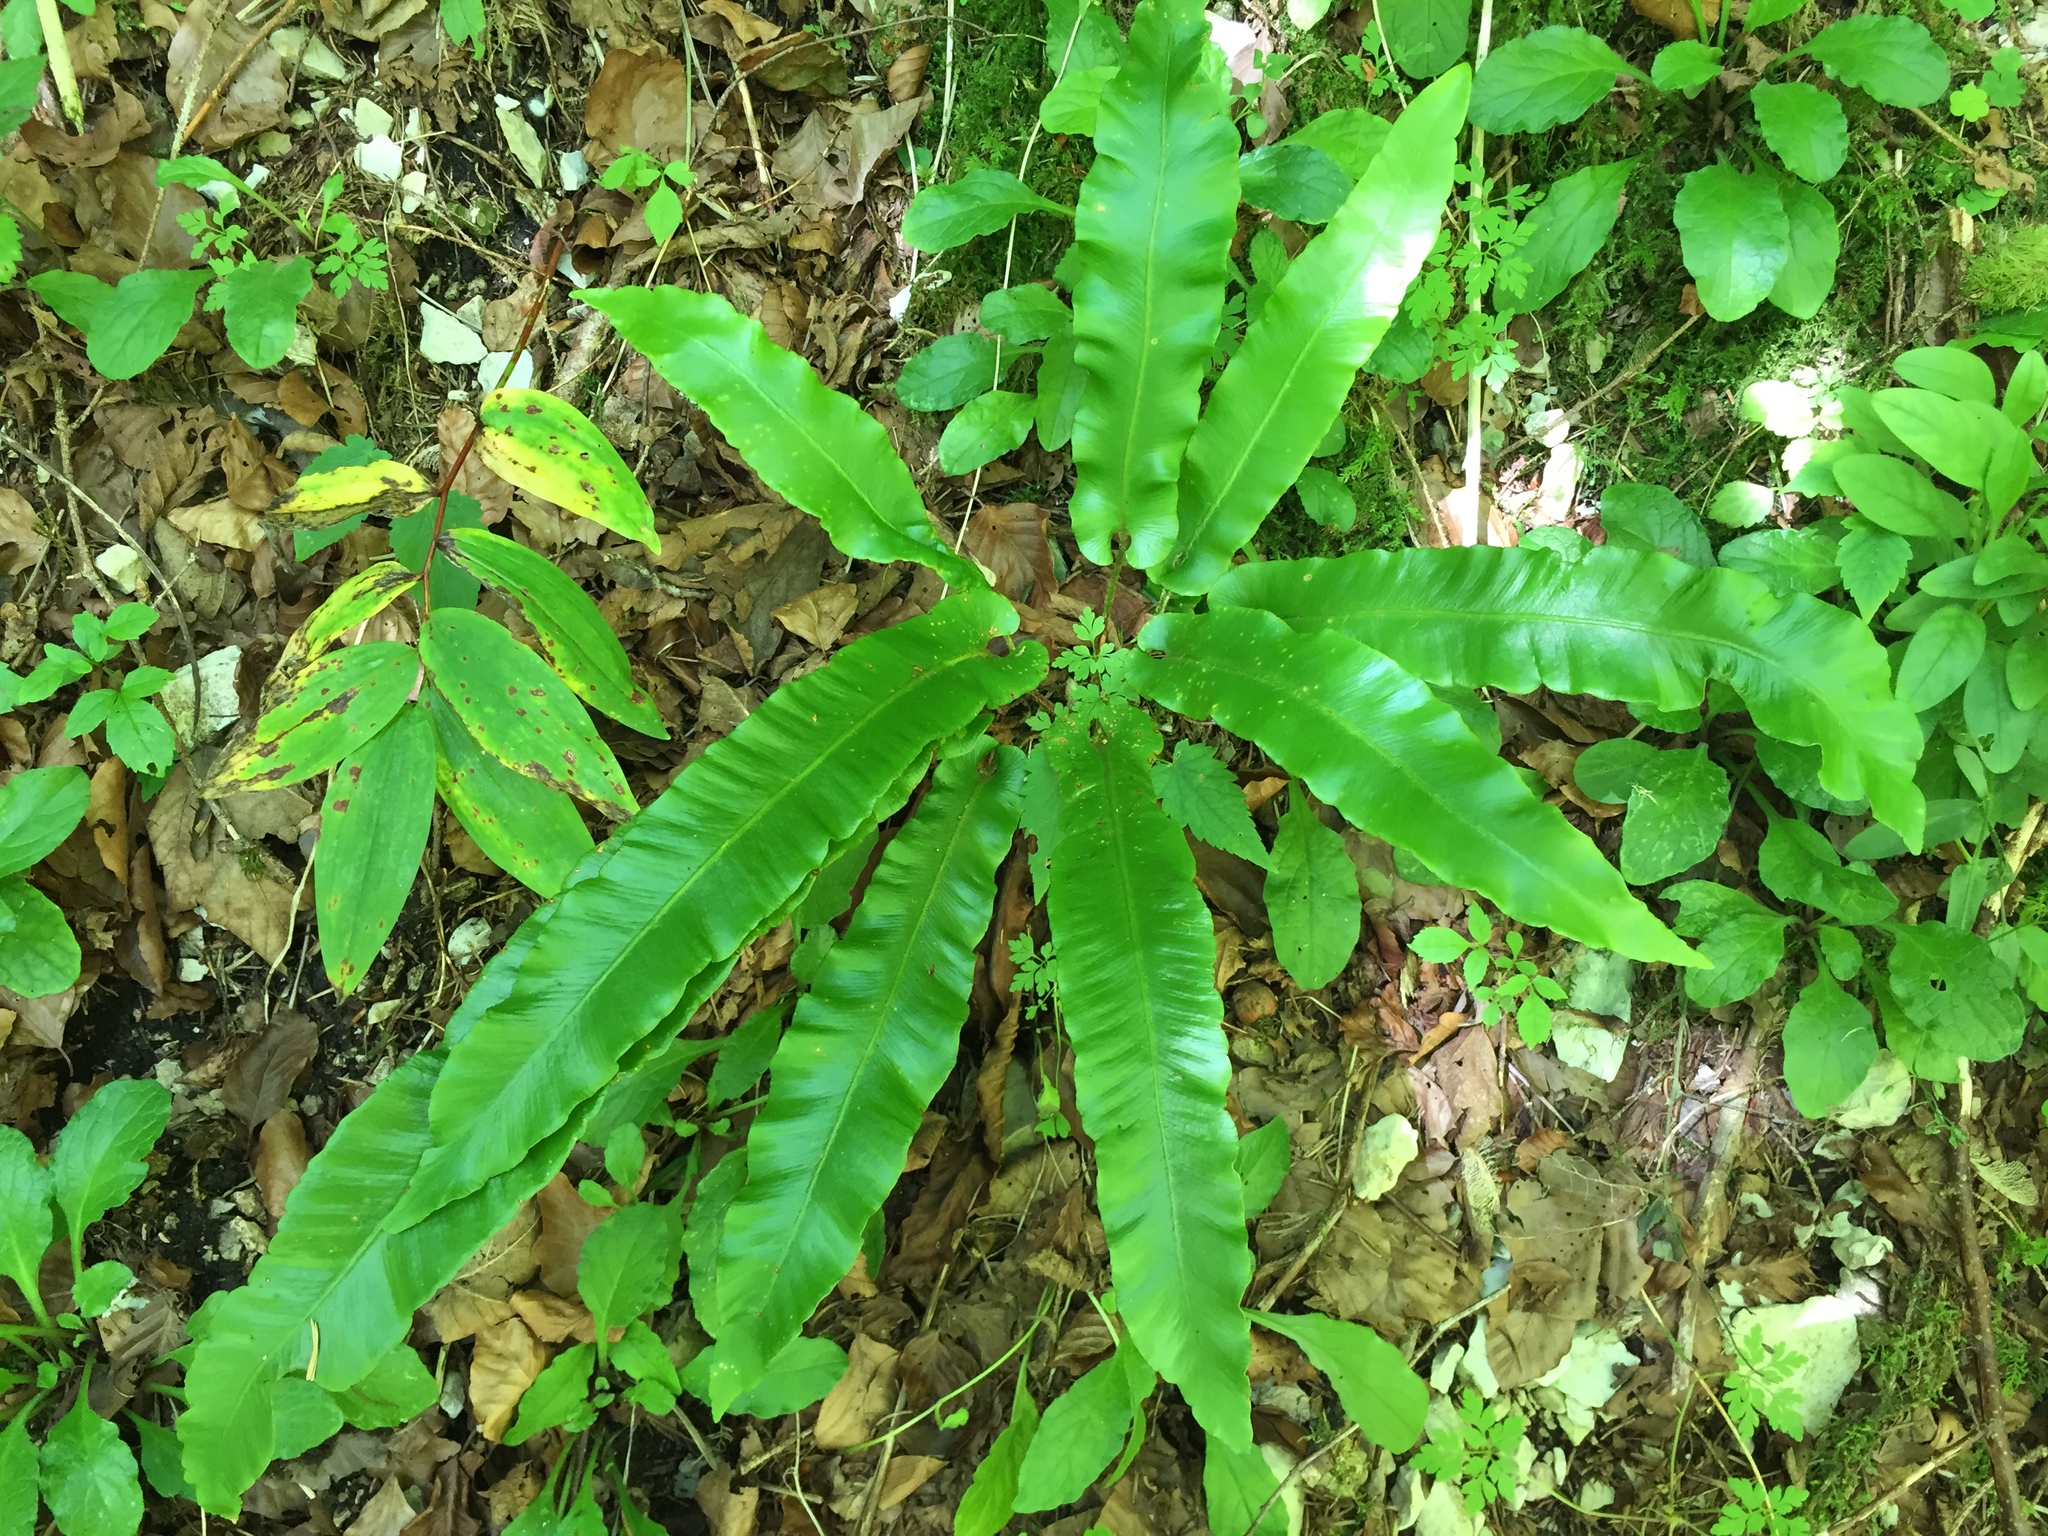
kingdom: Plantae
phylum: Tracheophyta
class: Polypodiopsida
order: Polypodiales
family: Aspleniaceae
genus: Asplenium
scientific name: Asplenium scolopendrium
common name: Hart's-tongue fern
